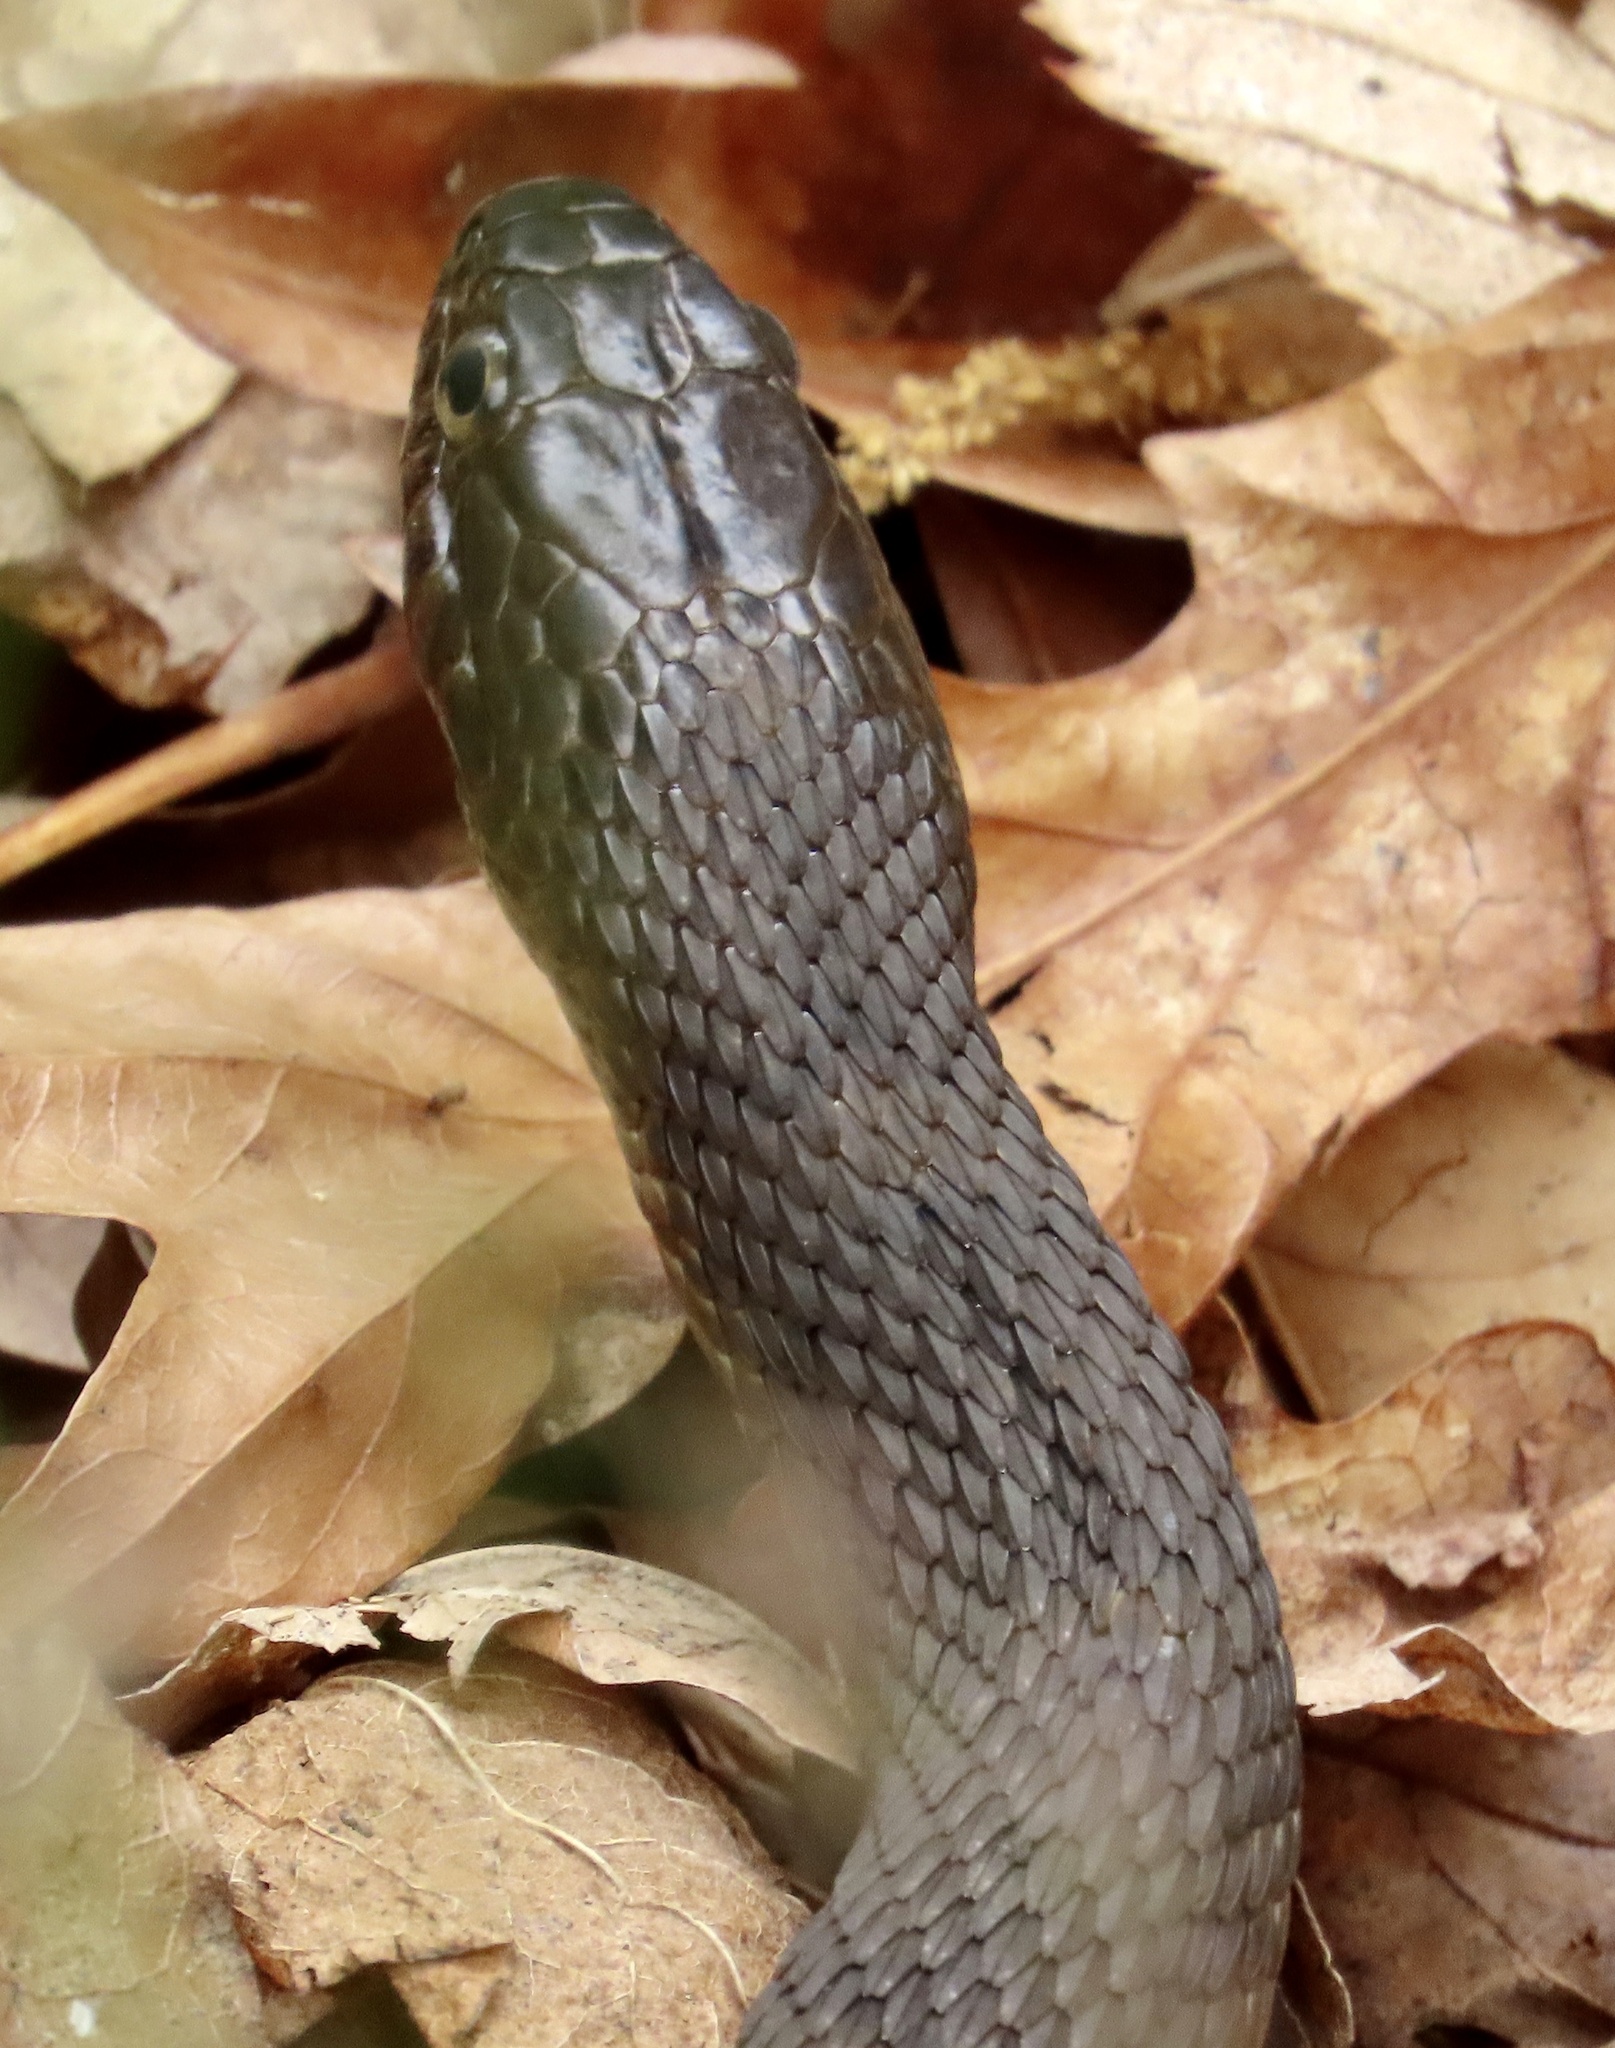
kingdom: Animalia
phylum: Chordata
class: Squamata
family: Colubridae
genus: Nerodia
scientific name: Nerodia sipedon
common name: Northern water snake
